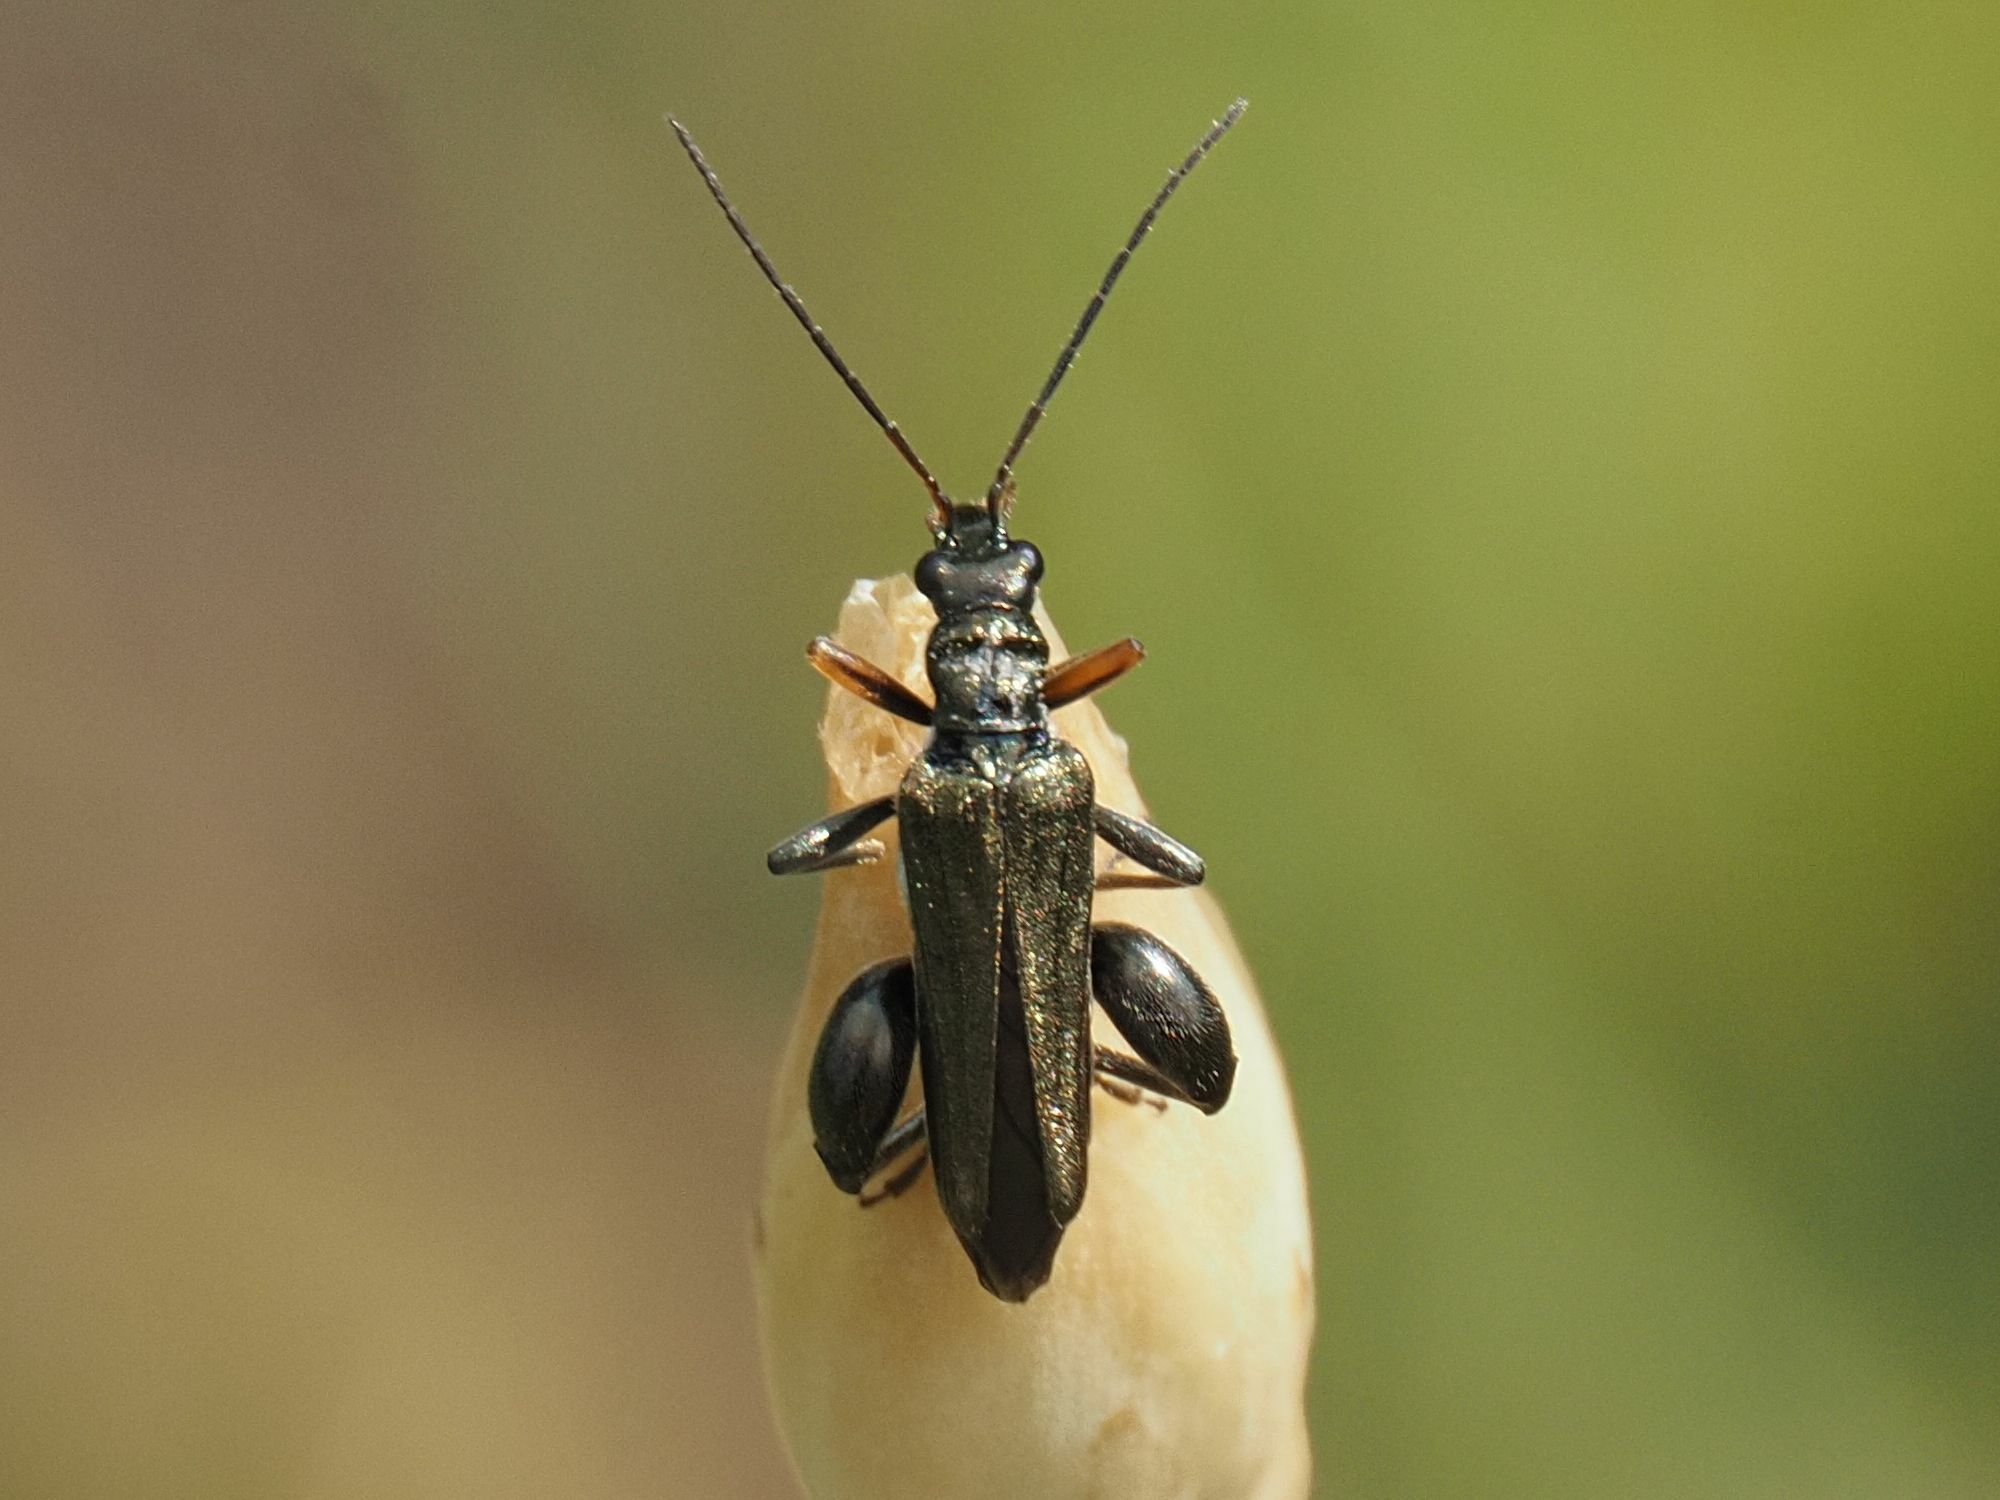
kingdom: Animalia
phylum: Arthropoda
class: Insecta
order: Coleoptera
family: Oedemeridae
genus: Oedemera
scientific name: Oedemera flavipes
